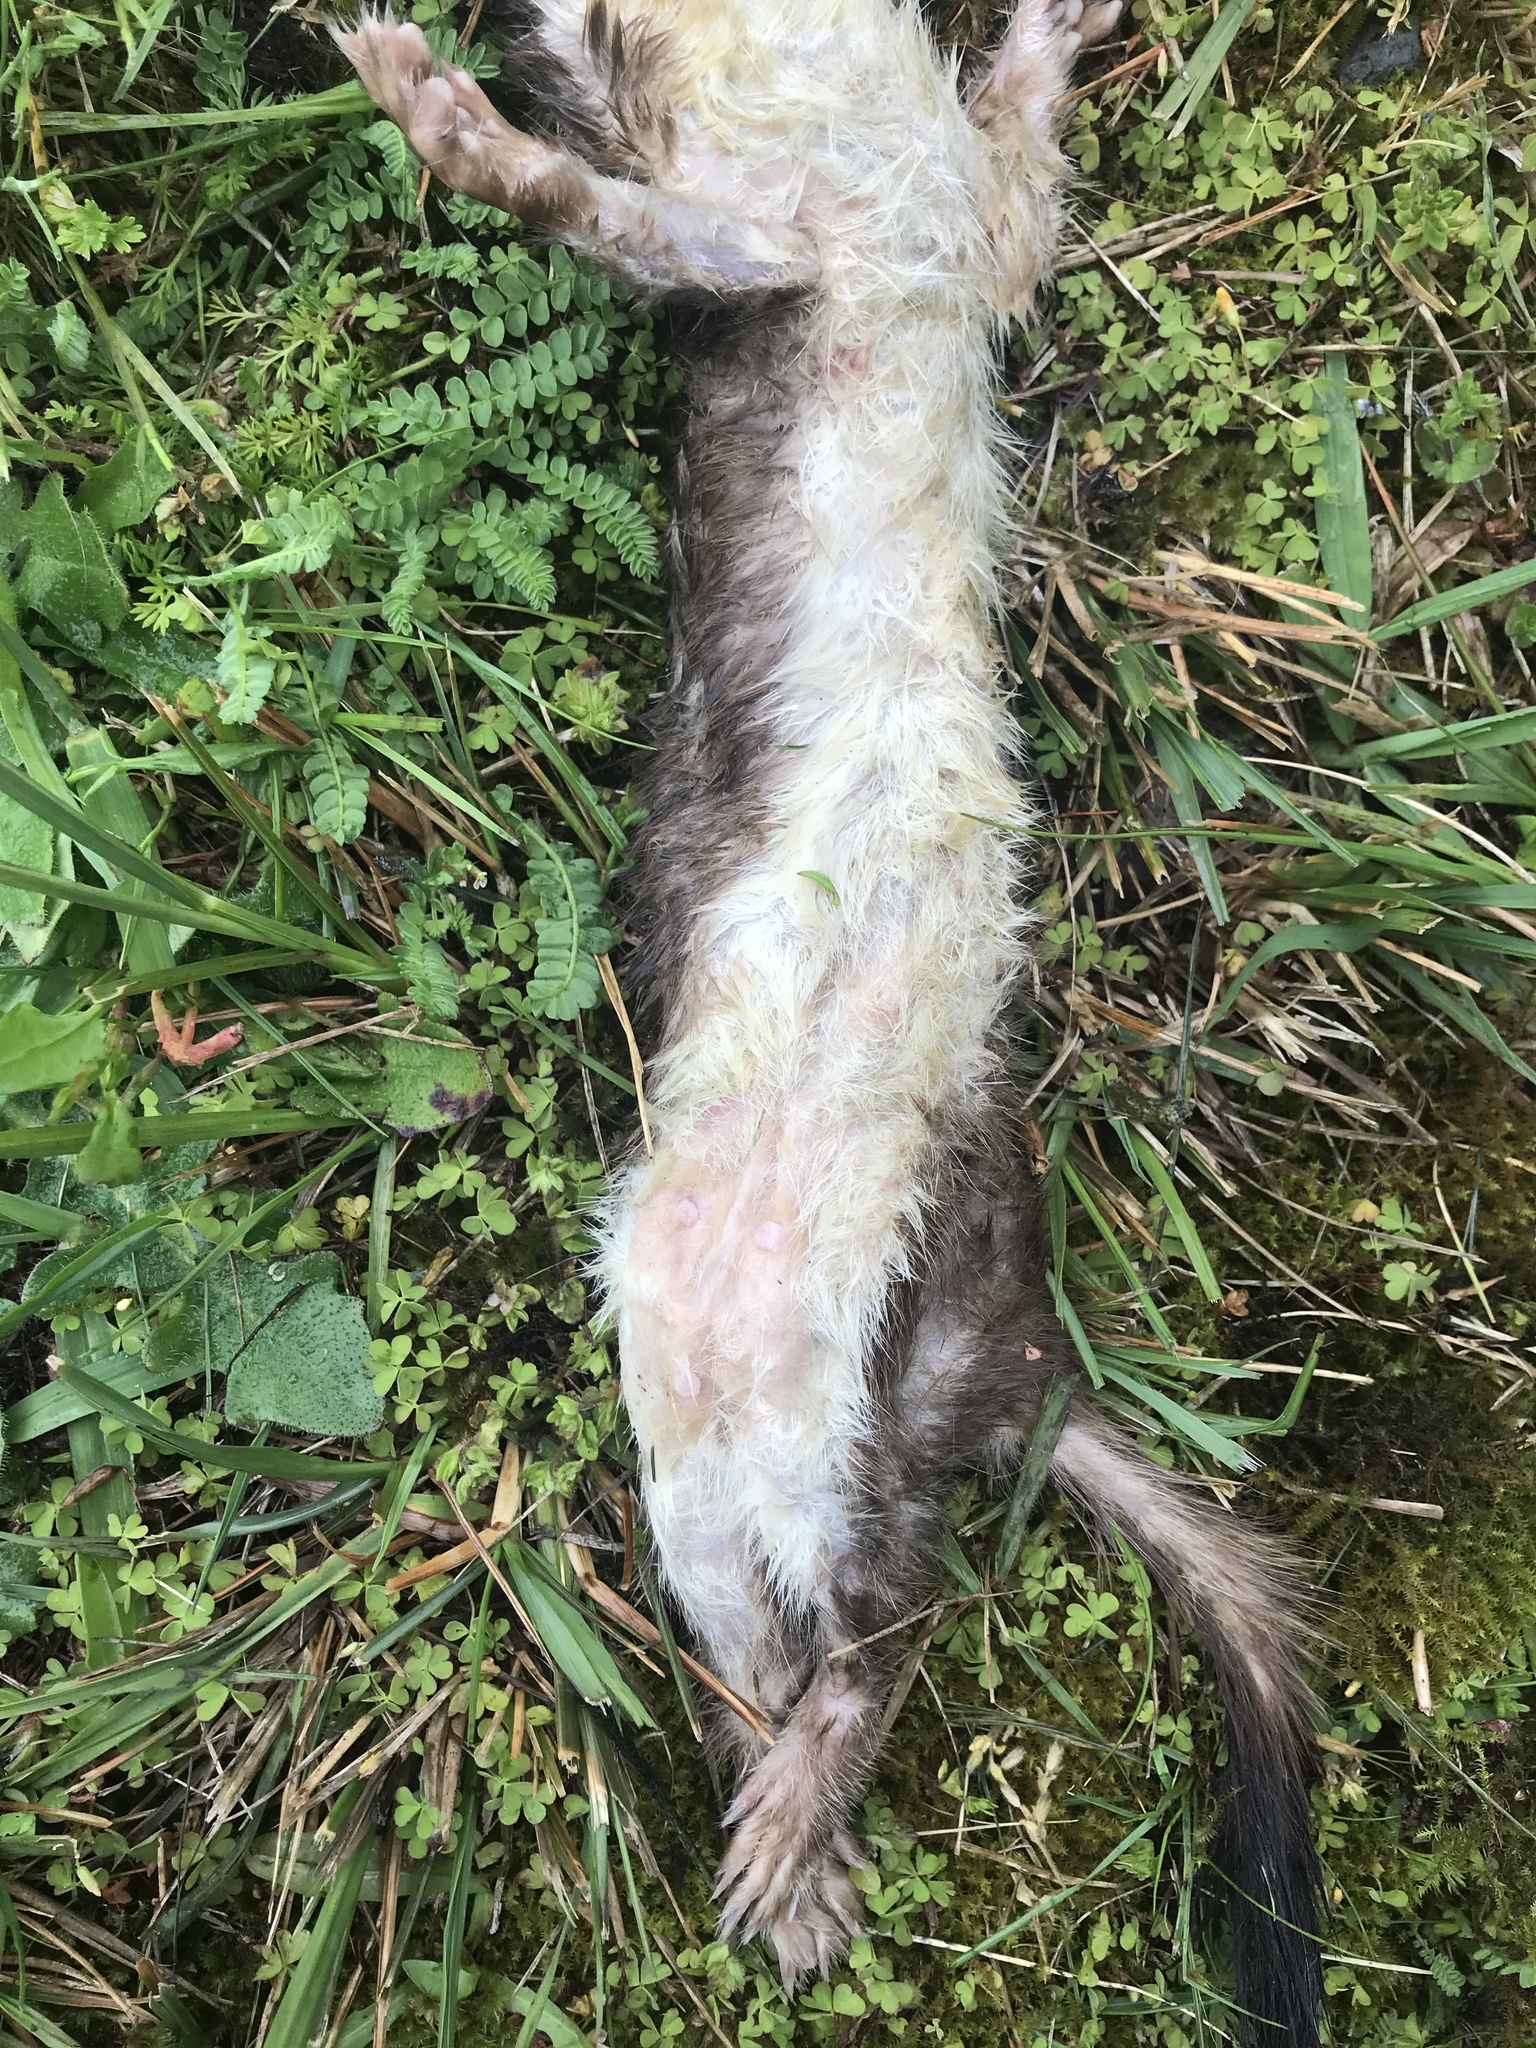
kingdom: Animalia
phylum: Chordata
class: Mammalia
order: Carnivora
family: Mustelidae
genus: Mustela
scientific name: Mustela erminea
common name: Stoat
